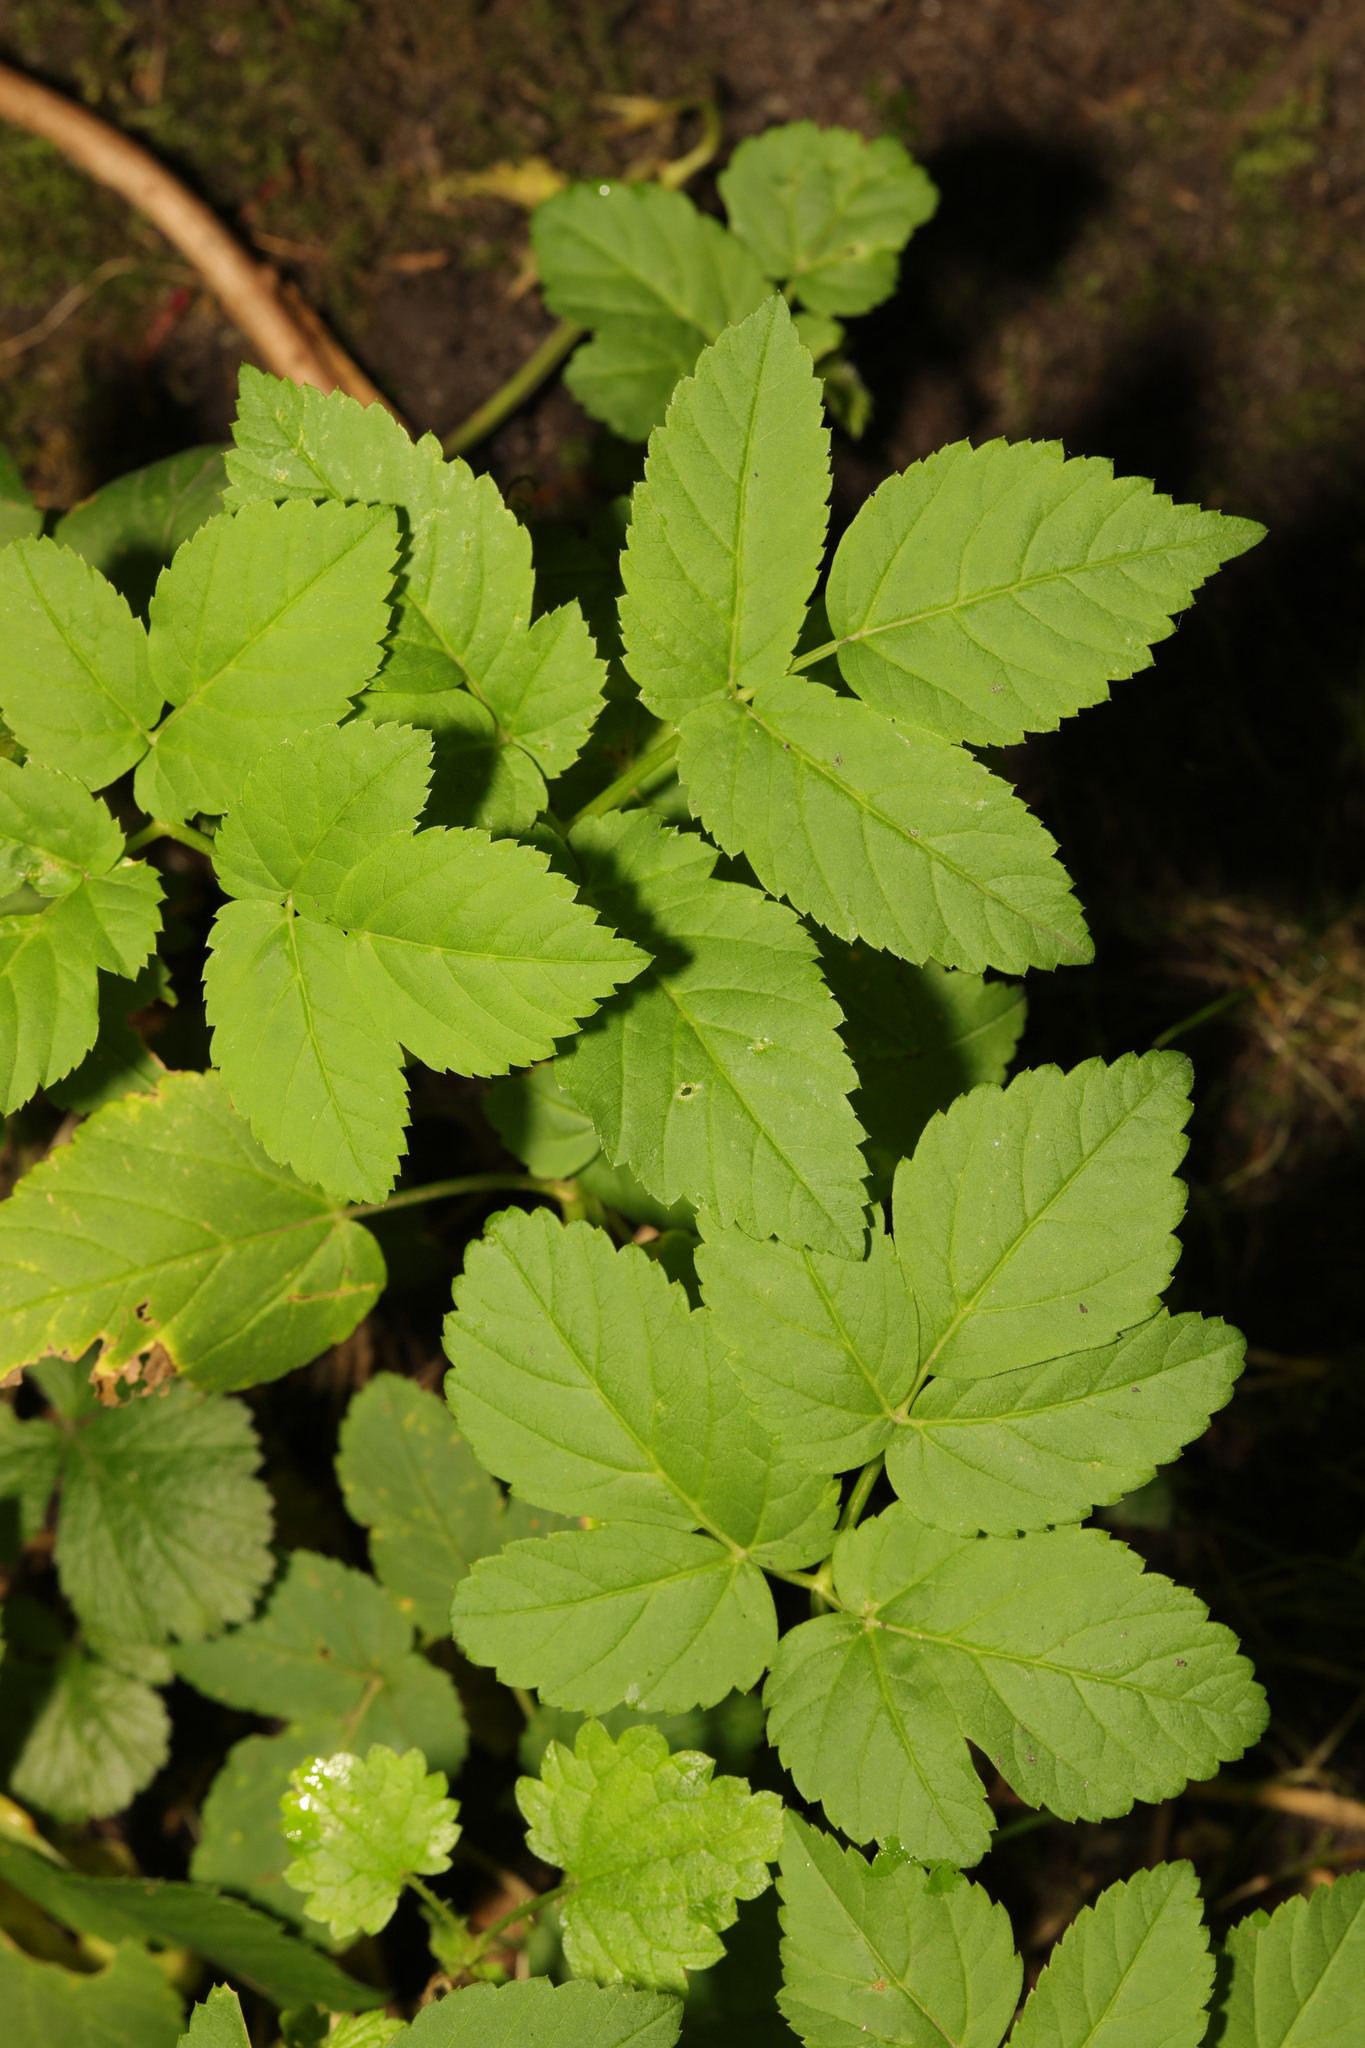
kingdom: Plantae
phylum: Tracheophyta
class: Magnoliopsida
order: Apiales
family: Apiaceae
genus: Aegopodium
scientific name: Aegopodium podagraria
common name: Ground-elder
